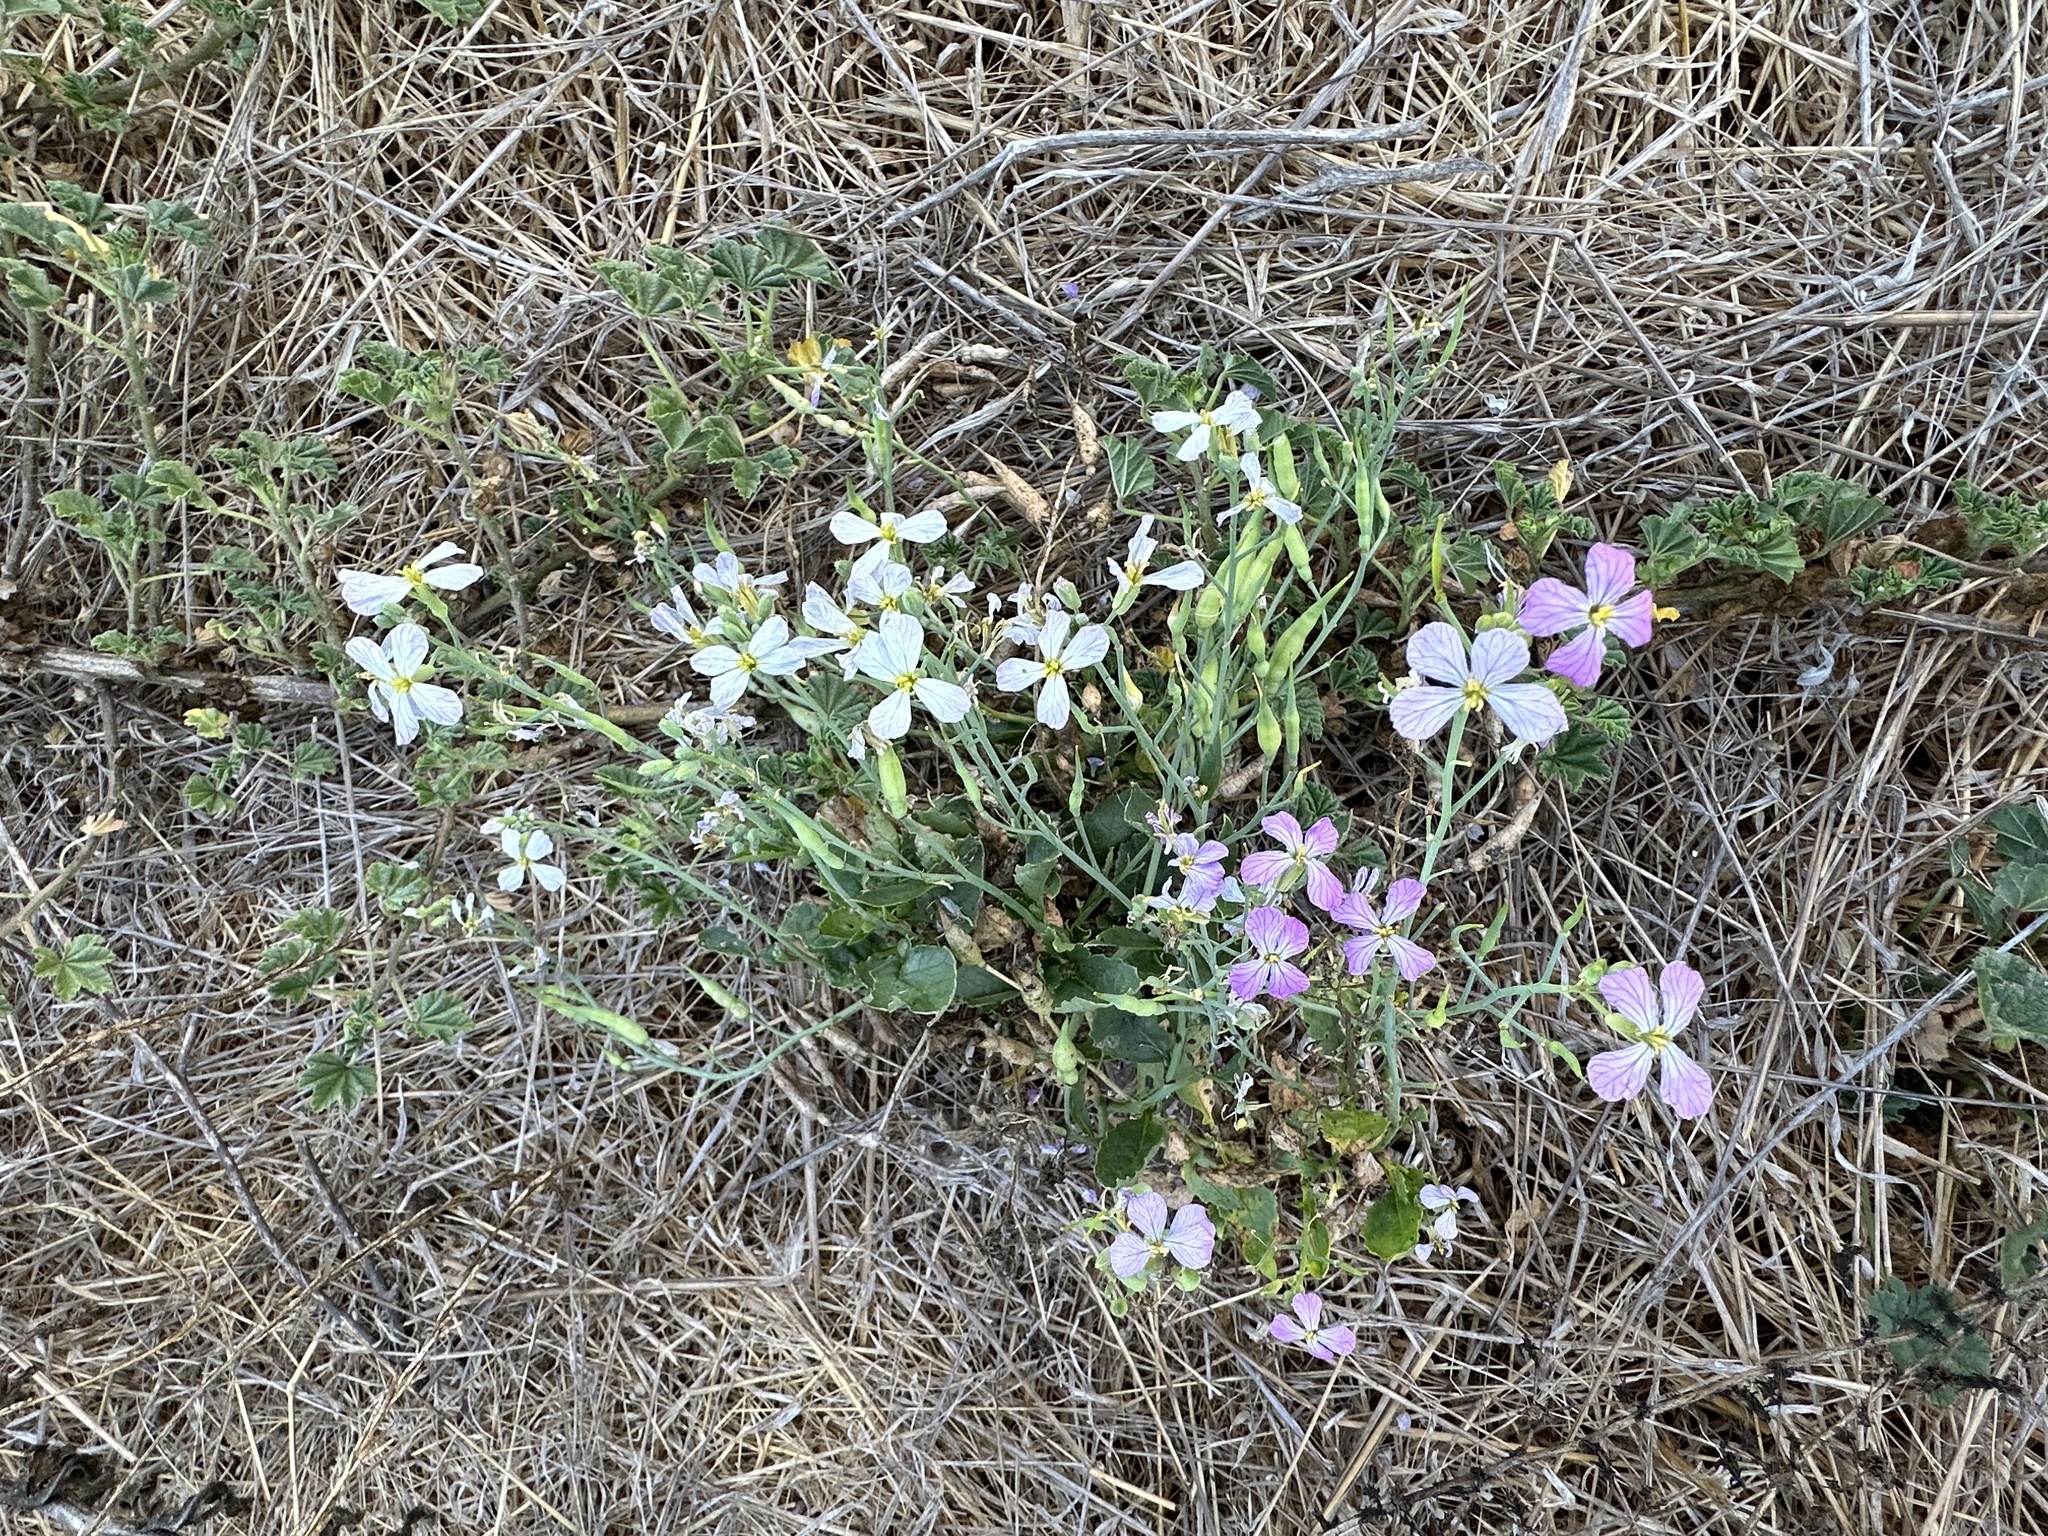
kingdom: Plantae
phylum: Tracheophyta
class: Magnoliopsida
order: Brassicales
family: Brassicaceae
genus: Raphanus
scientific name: Raphanus sativus
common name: Cultivated radish
